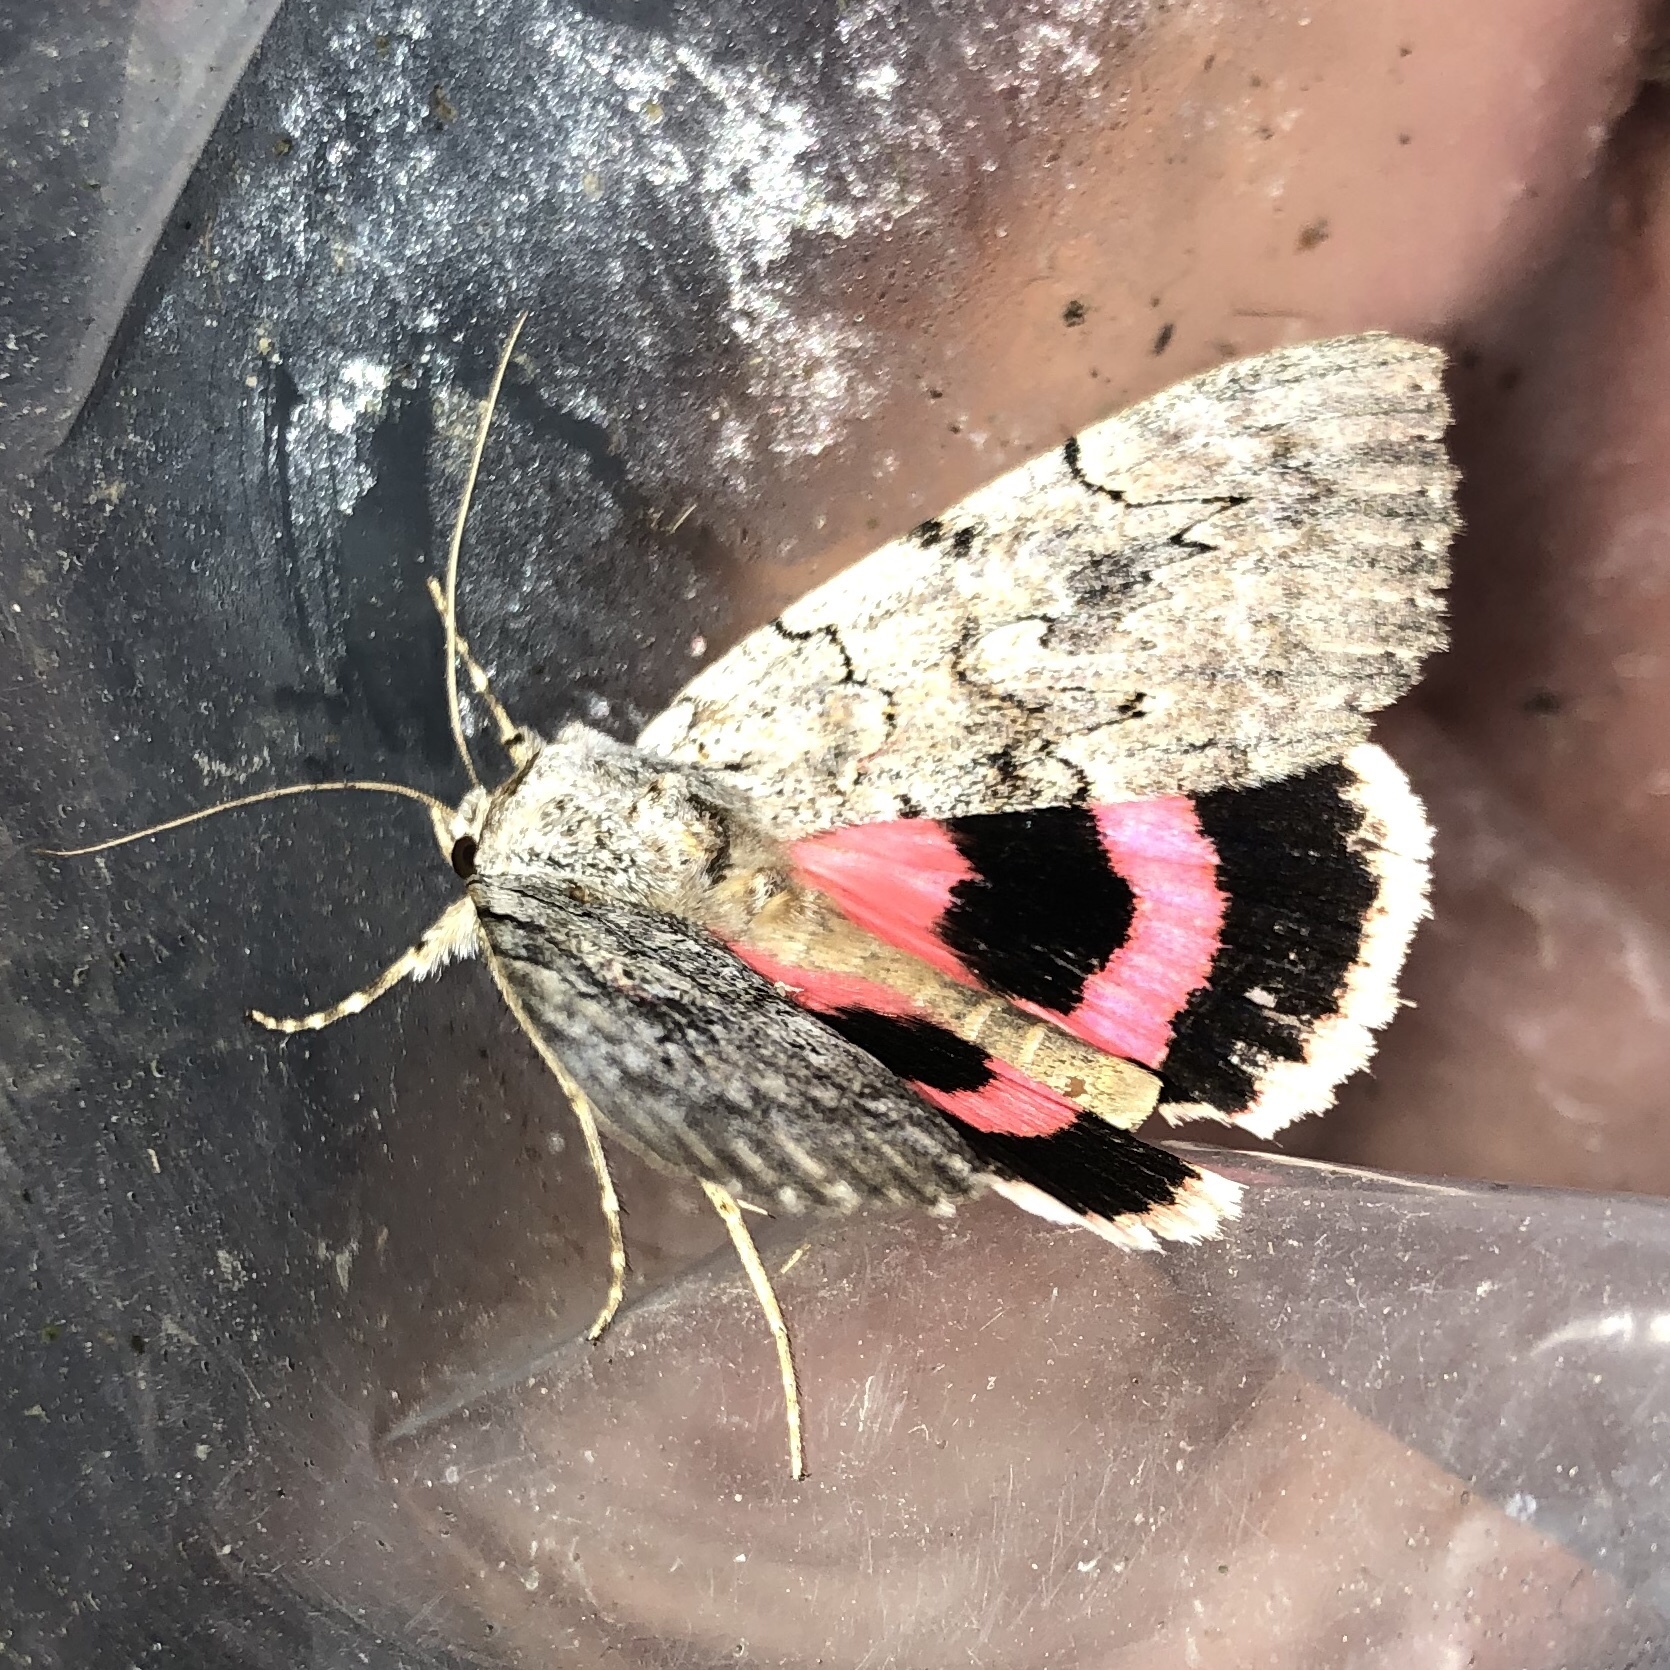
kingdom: Animalia
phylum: Arthropoda
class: Insecta
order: Lepidoptera
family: Erebidae
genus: Catocala
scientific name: Catocala concumbens
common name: Pink underwing
